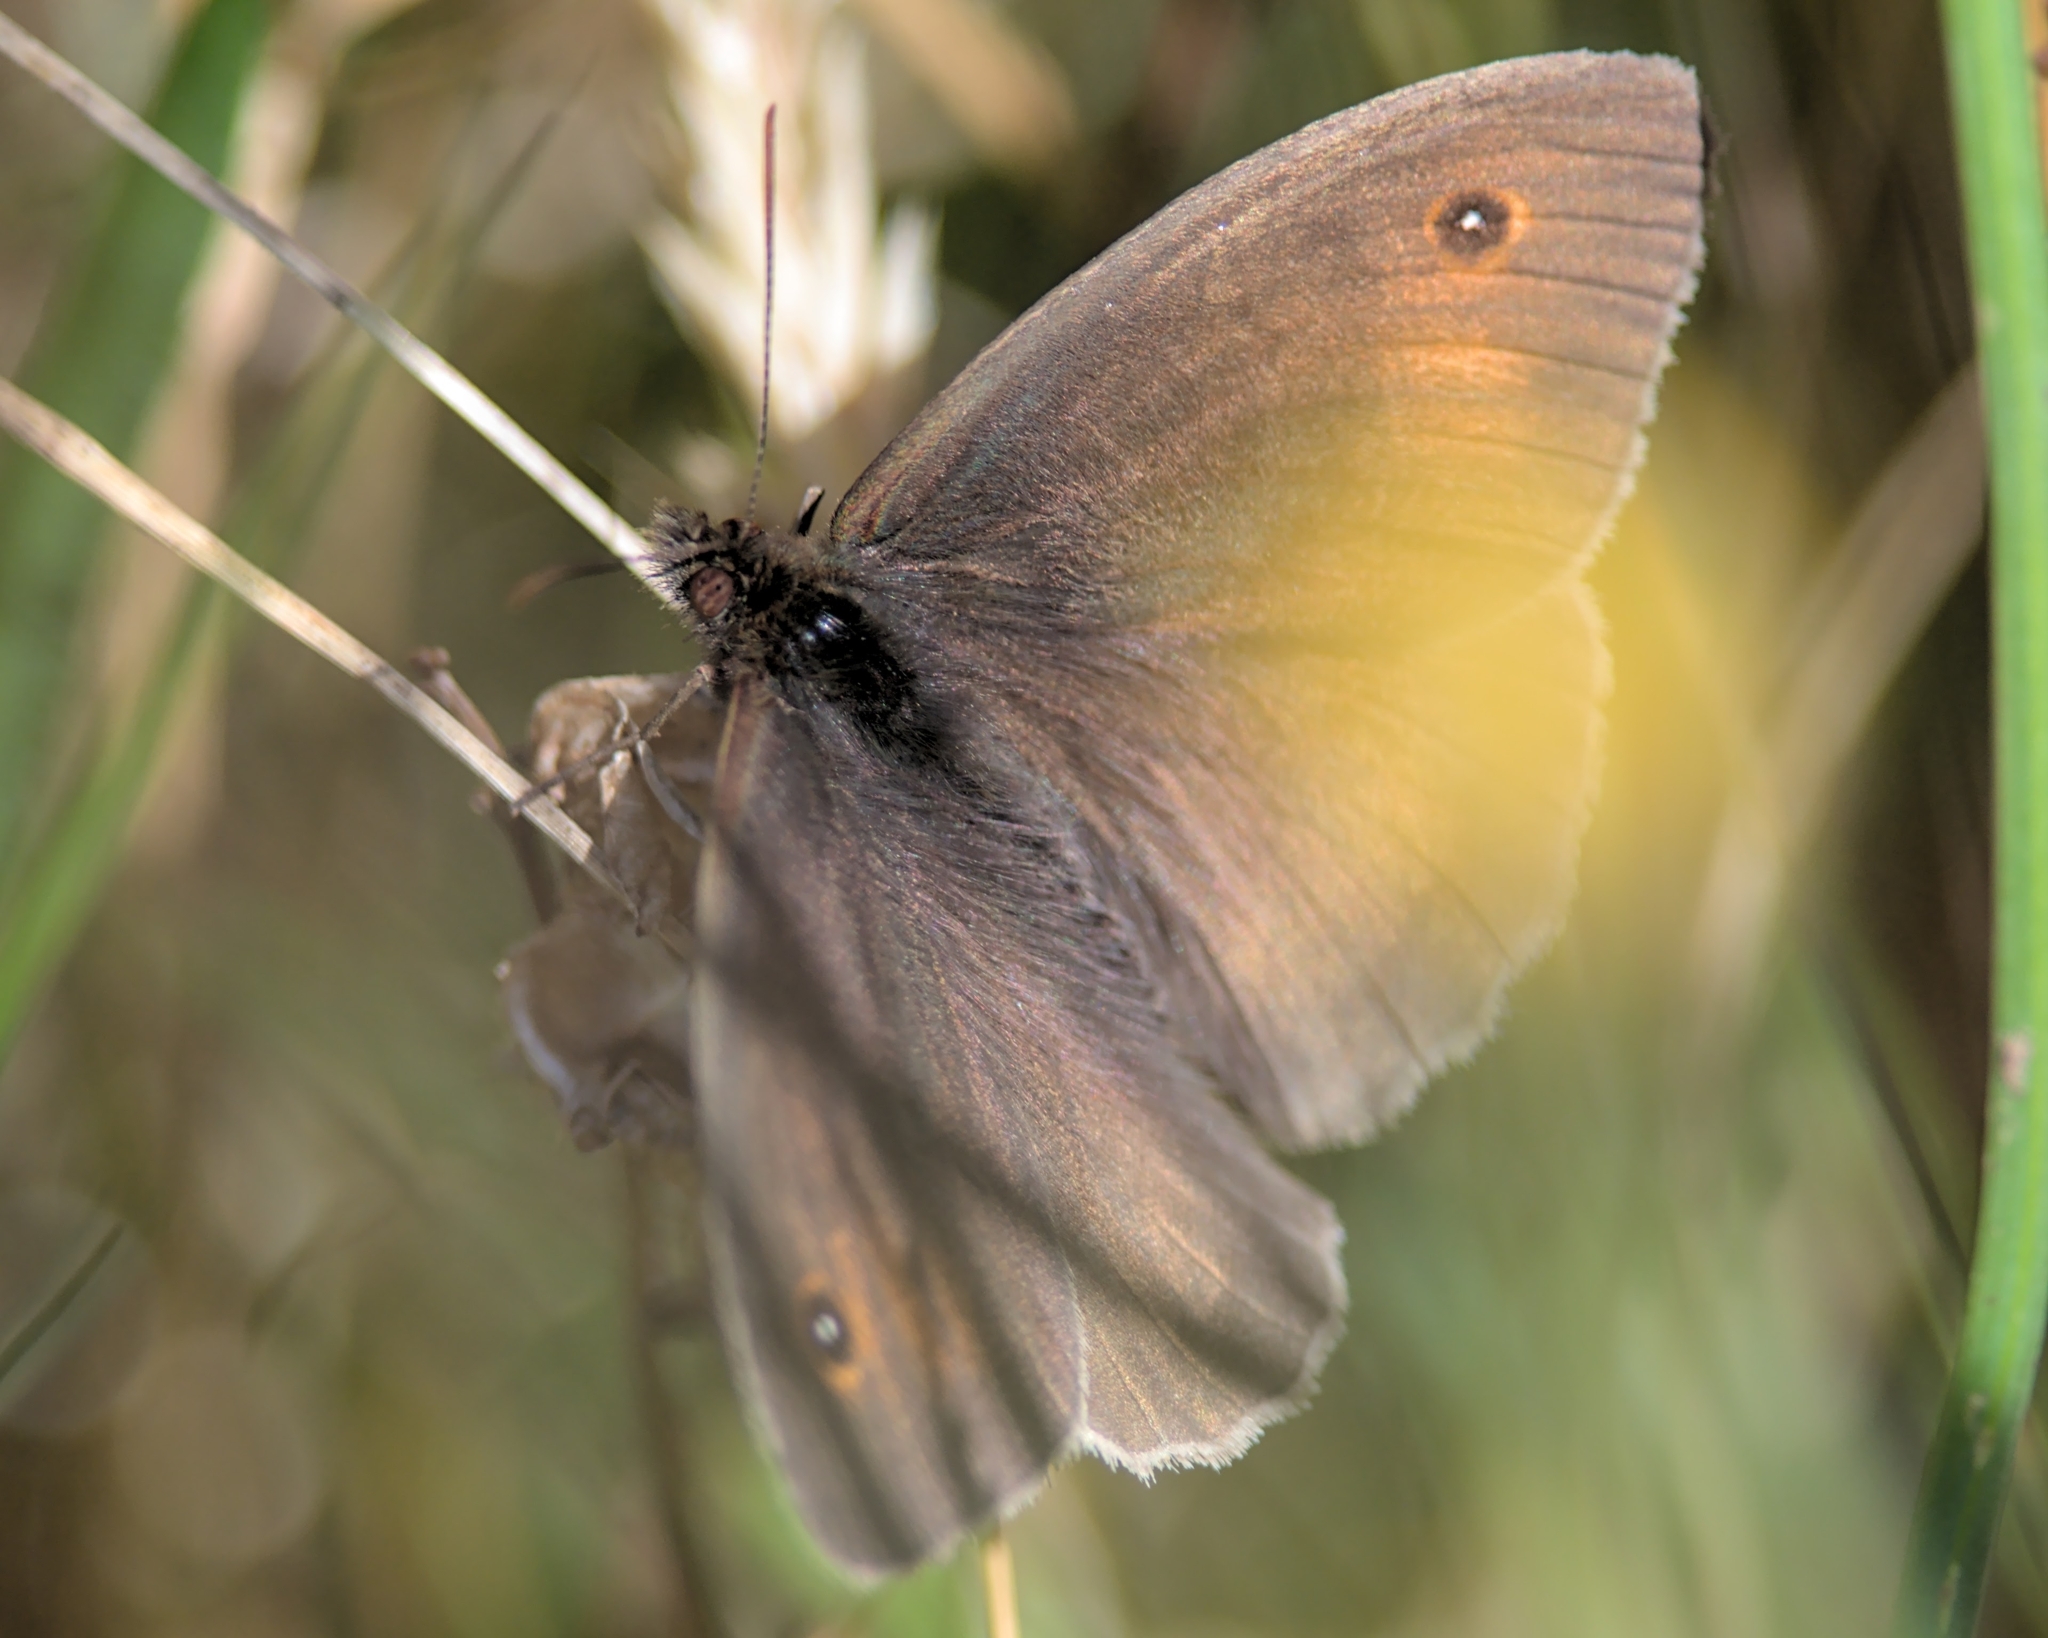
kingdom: Animalia
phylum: Arthropoda
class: Insecta
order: Lepidoptera
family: Nymphalidae
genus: Maniola
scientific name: Maniola jurtina
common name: Meadow brown
